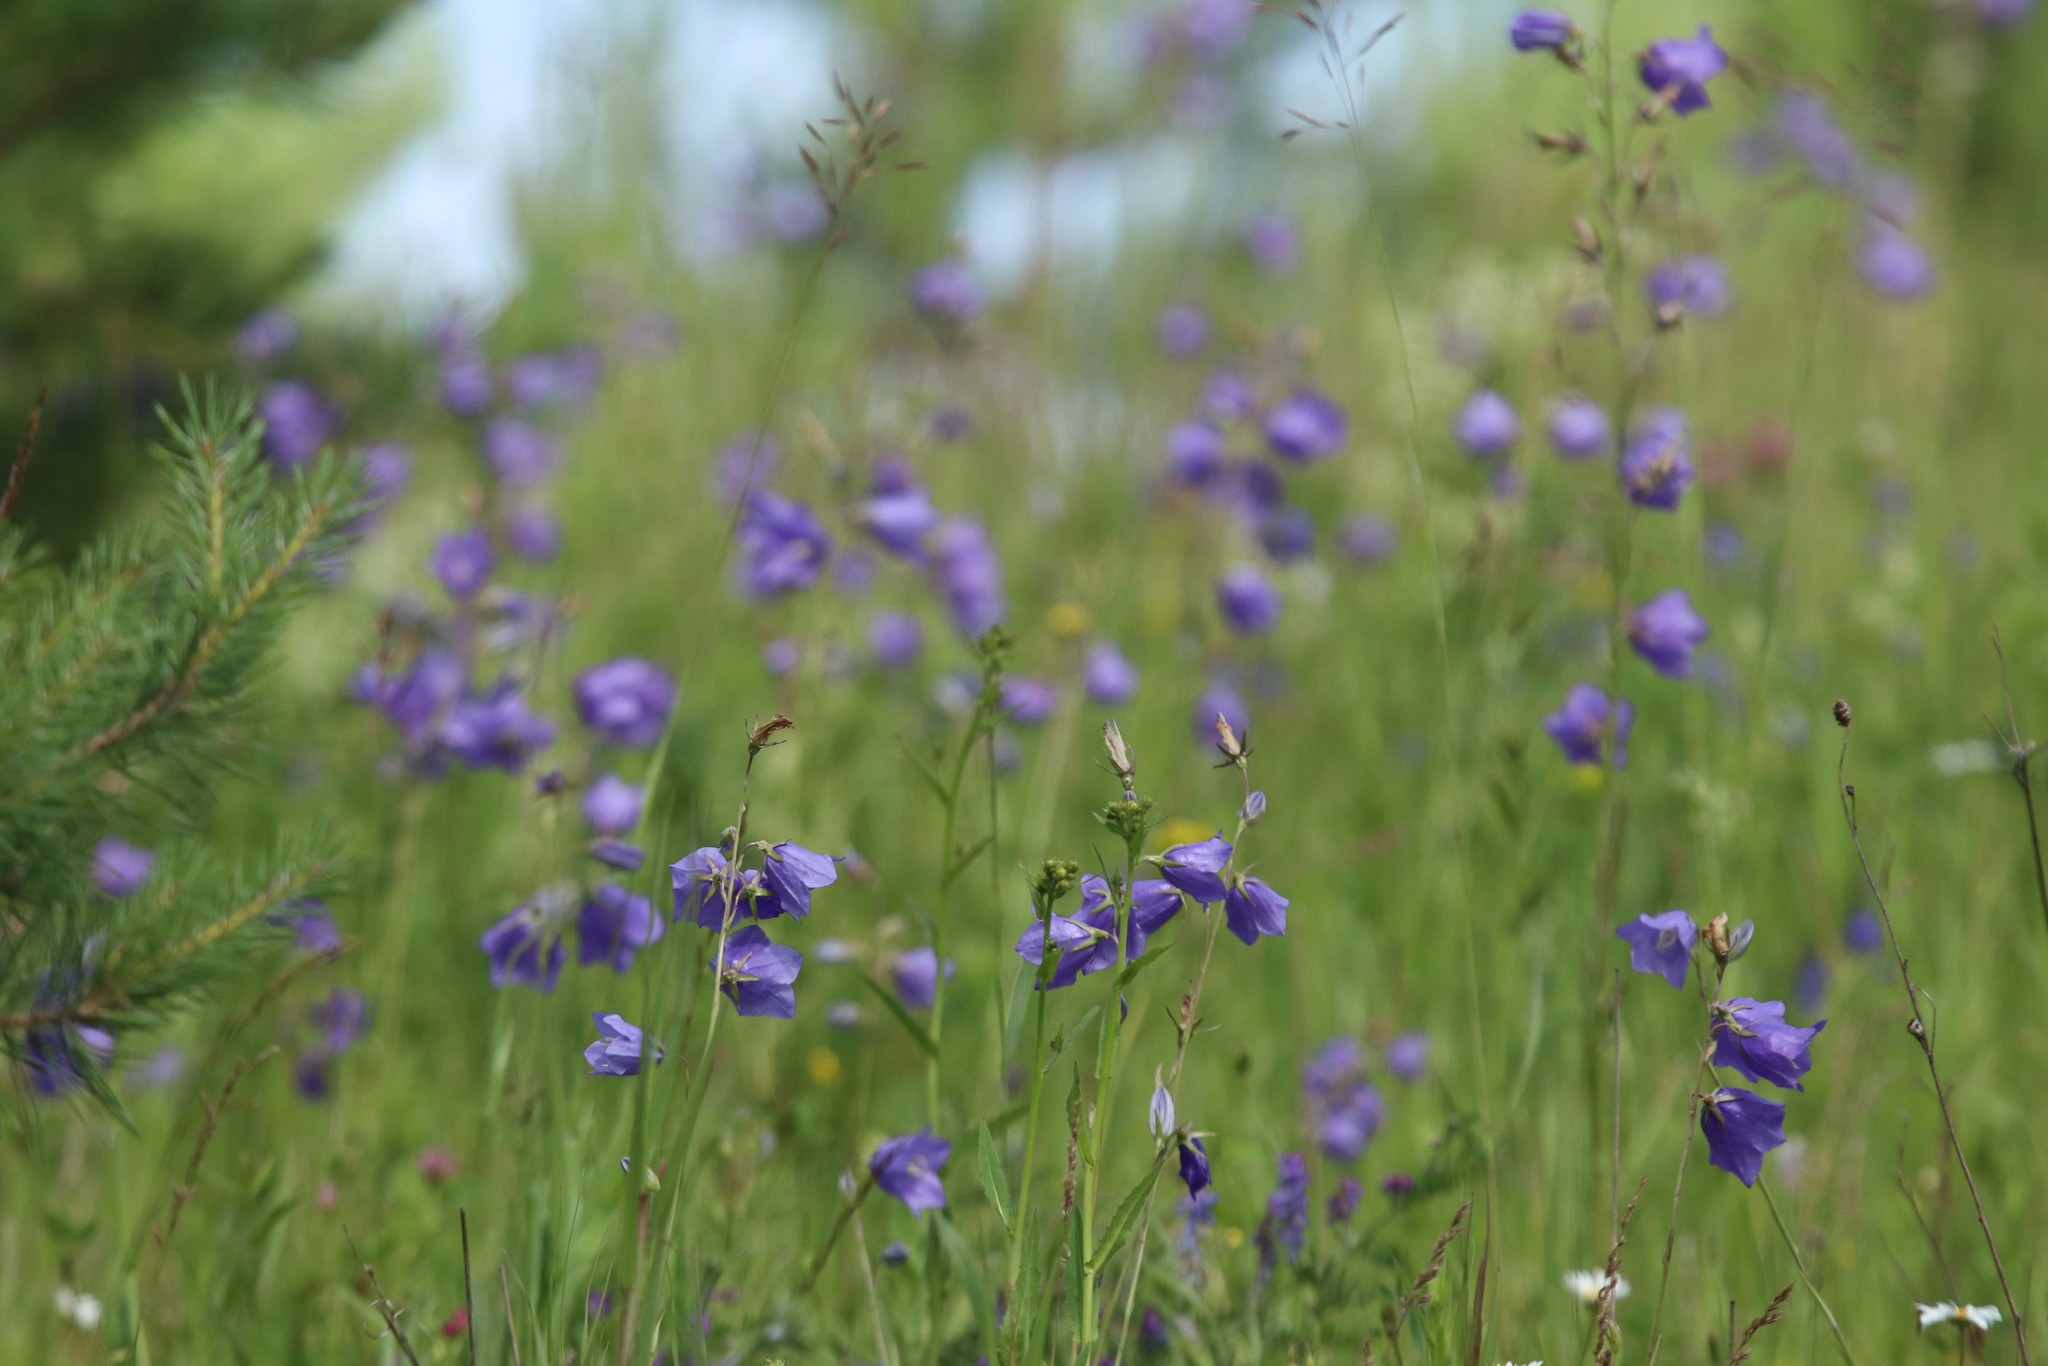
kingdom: Plantae
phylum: Tracheophyta
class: Magnoliopsida
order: Asterales
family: Campanulaceae
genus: Campanula
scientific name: Campanula rotundifolia
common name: Harebell
